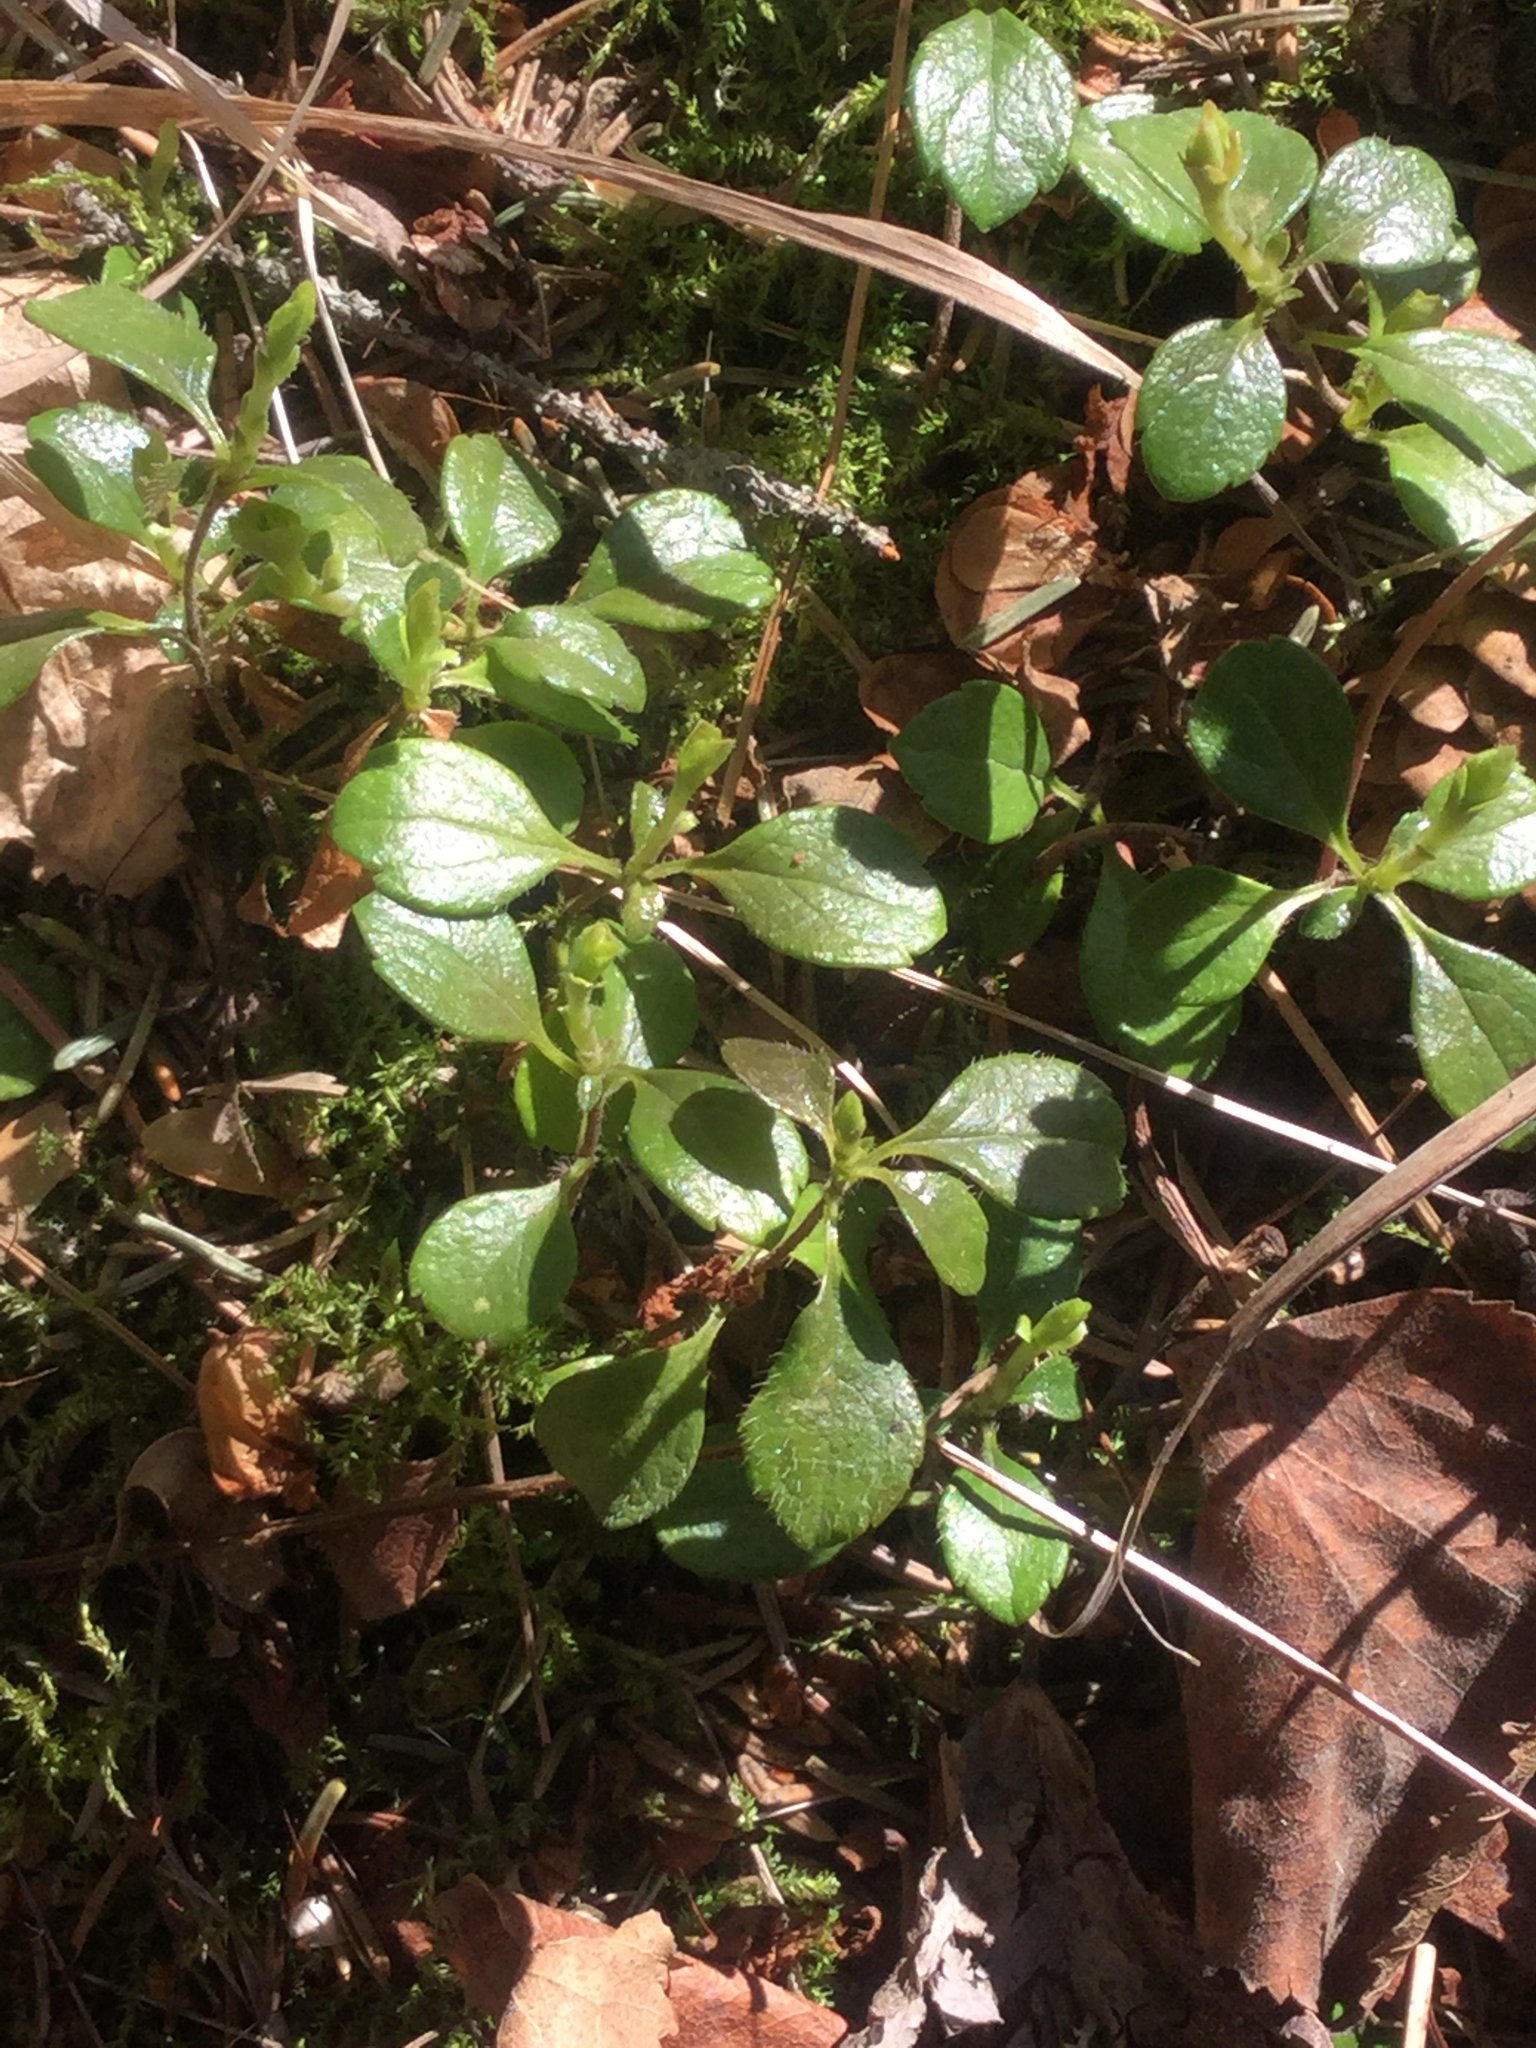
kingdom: Plantae
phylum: Tracheophyta
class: Magnoliopsida
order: Dipsacales
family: Caprifoliaceae
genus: Linnaea
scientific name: Linnaea borealis
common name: Twinflower
